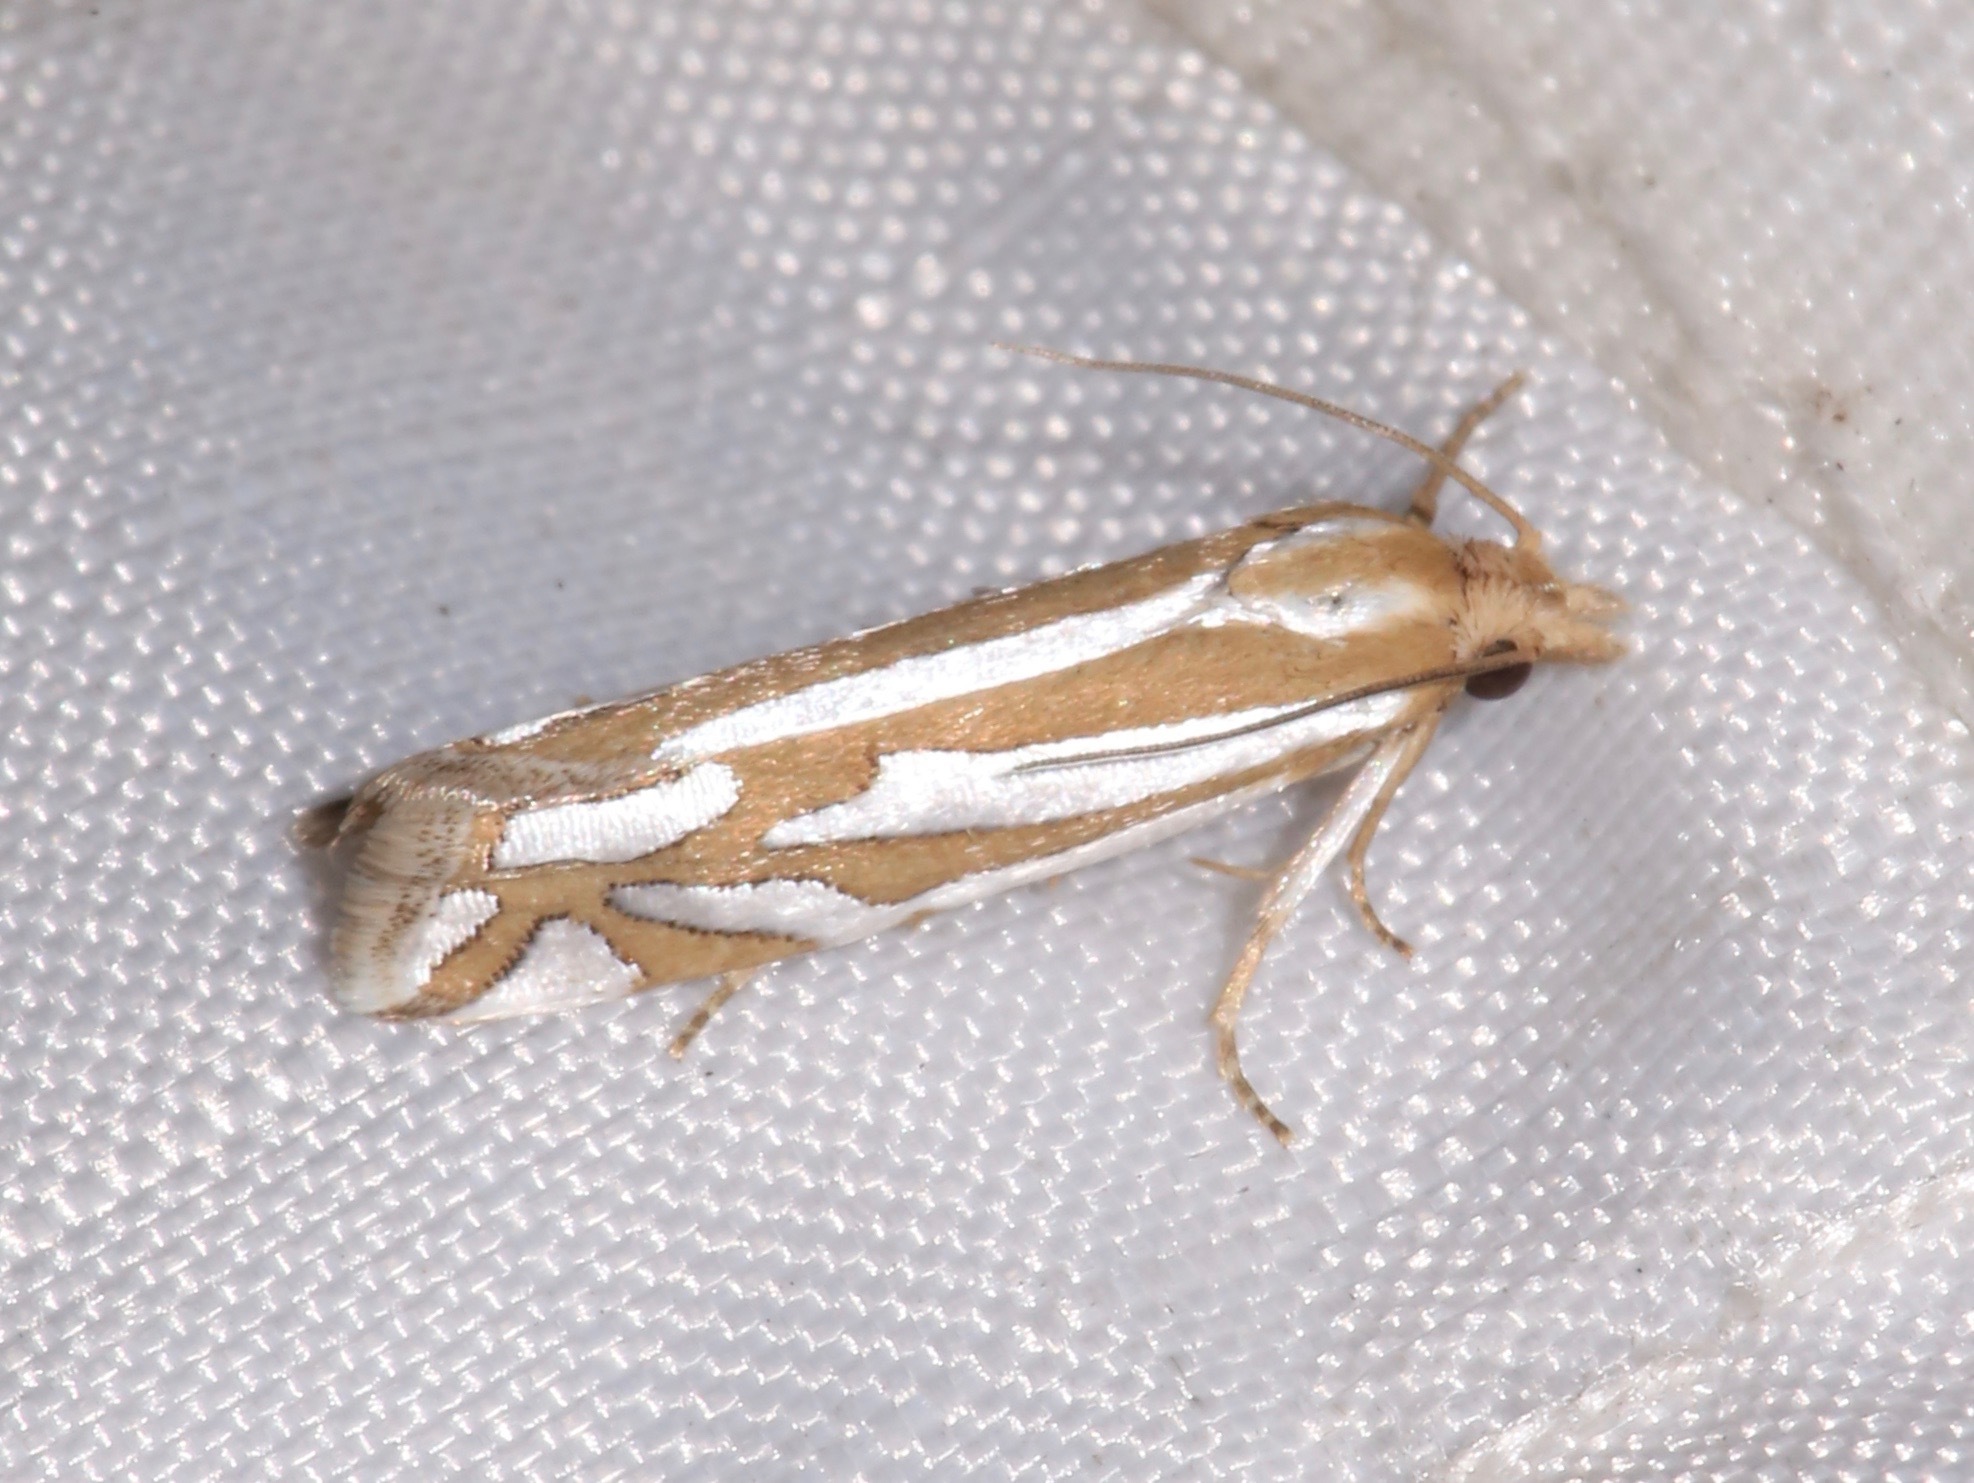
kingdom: Animalia
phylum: Arthropoda
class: Insecta
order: Lepidoptera
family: Tortricidae
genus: Pelochrista
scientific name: Pelochrista ridingsana
